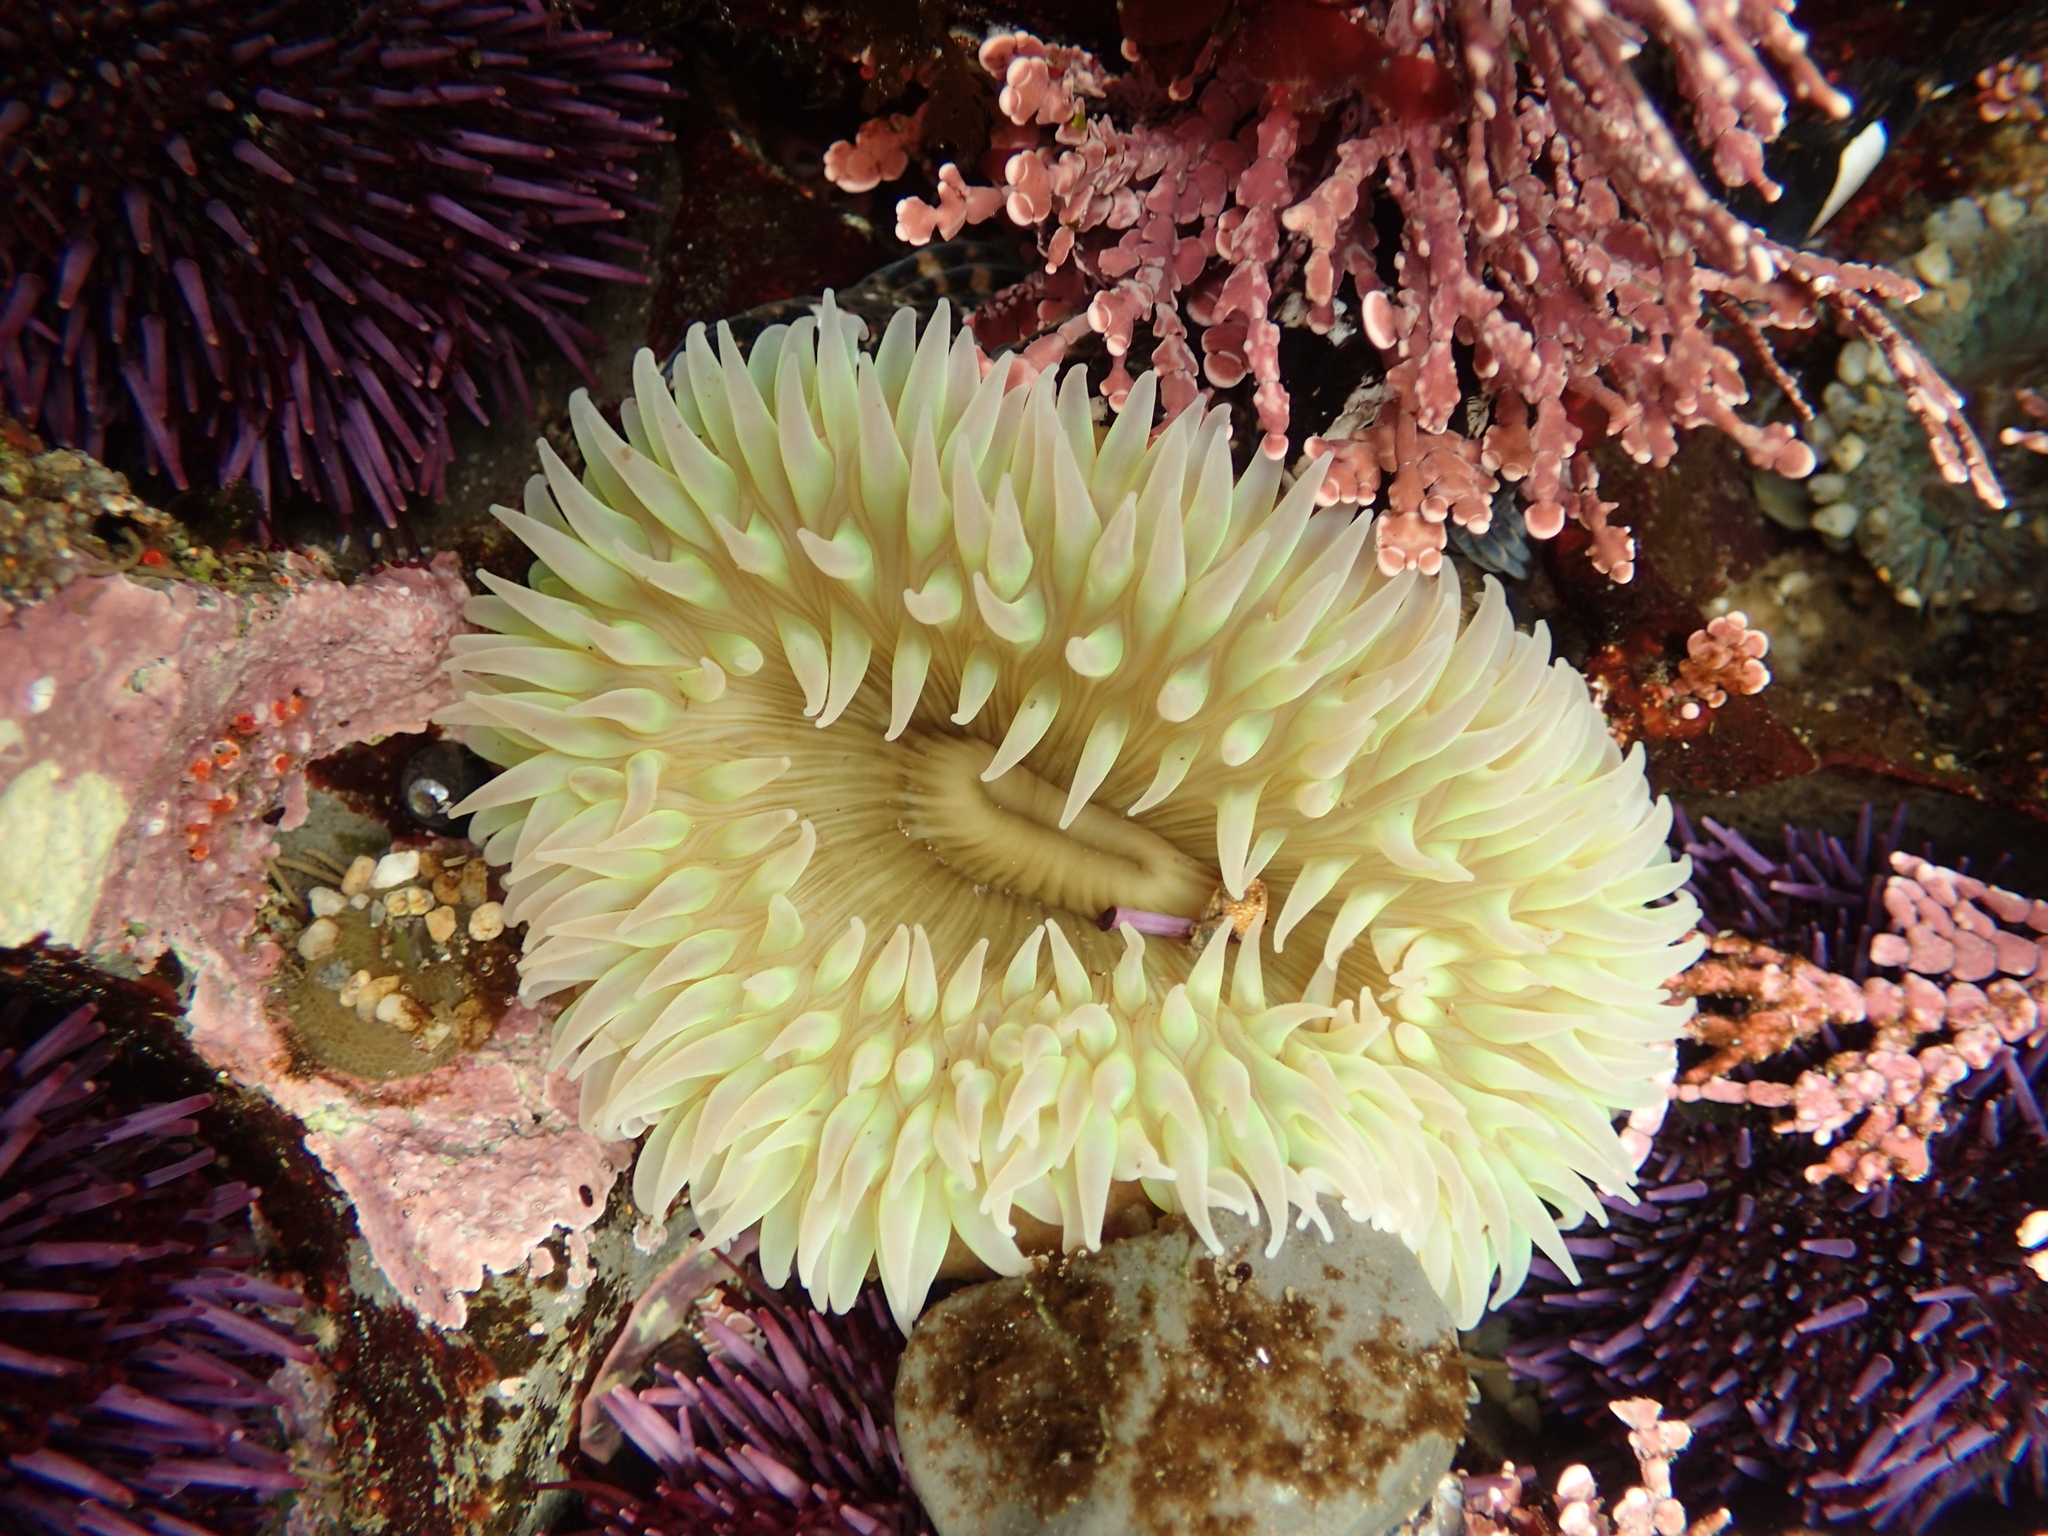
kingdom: Animalia
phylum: Cnidaria
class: Anthozoa
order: Actiniaria
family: Actiniidae
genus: Anthopleura
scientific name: Anthopleura xanthogrammica
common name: Giant green anemone
